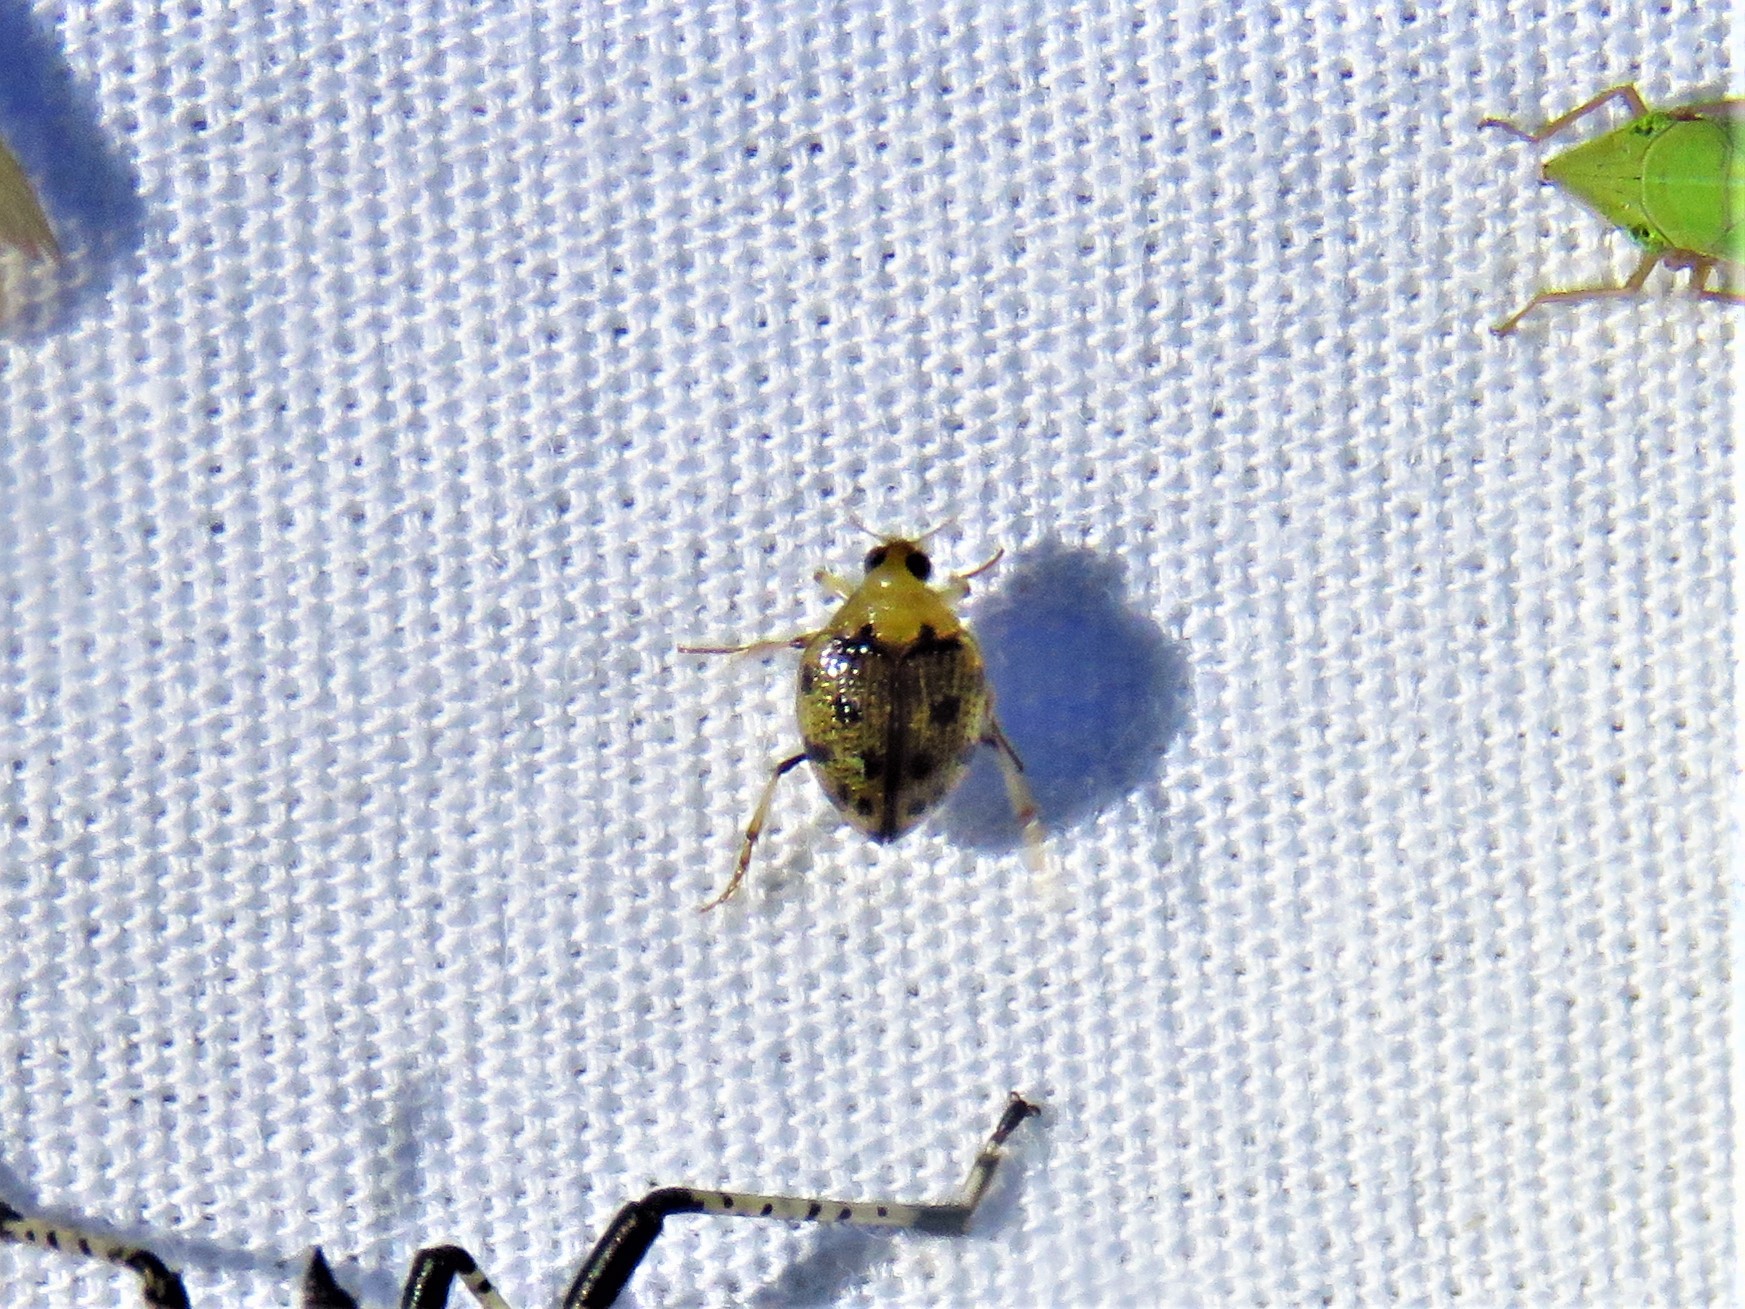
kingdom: Animalia
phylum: Arthropoda
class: Insecta
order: Coleoptera
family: Haliplidae
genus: Peltodytes
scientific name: Peltodytes
